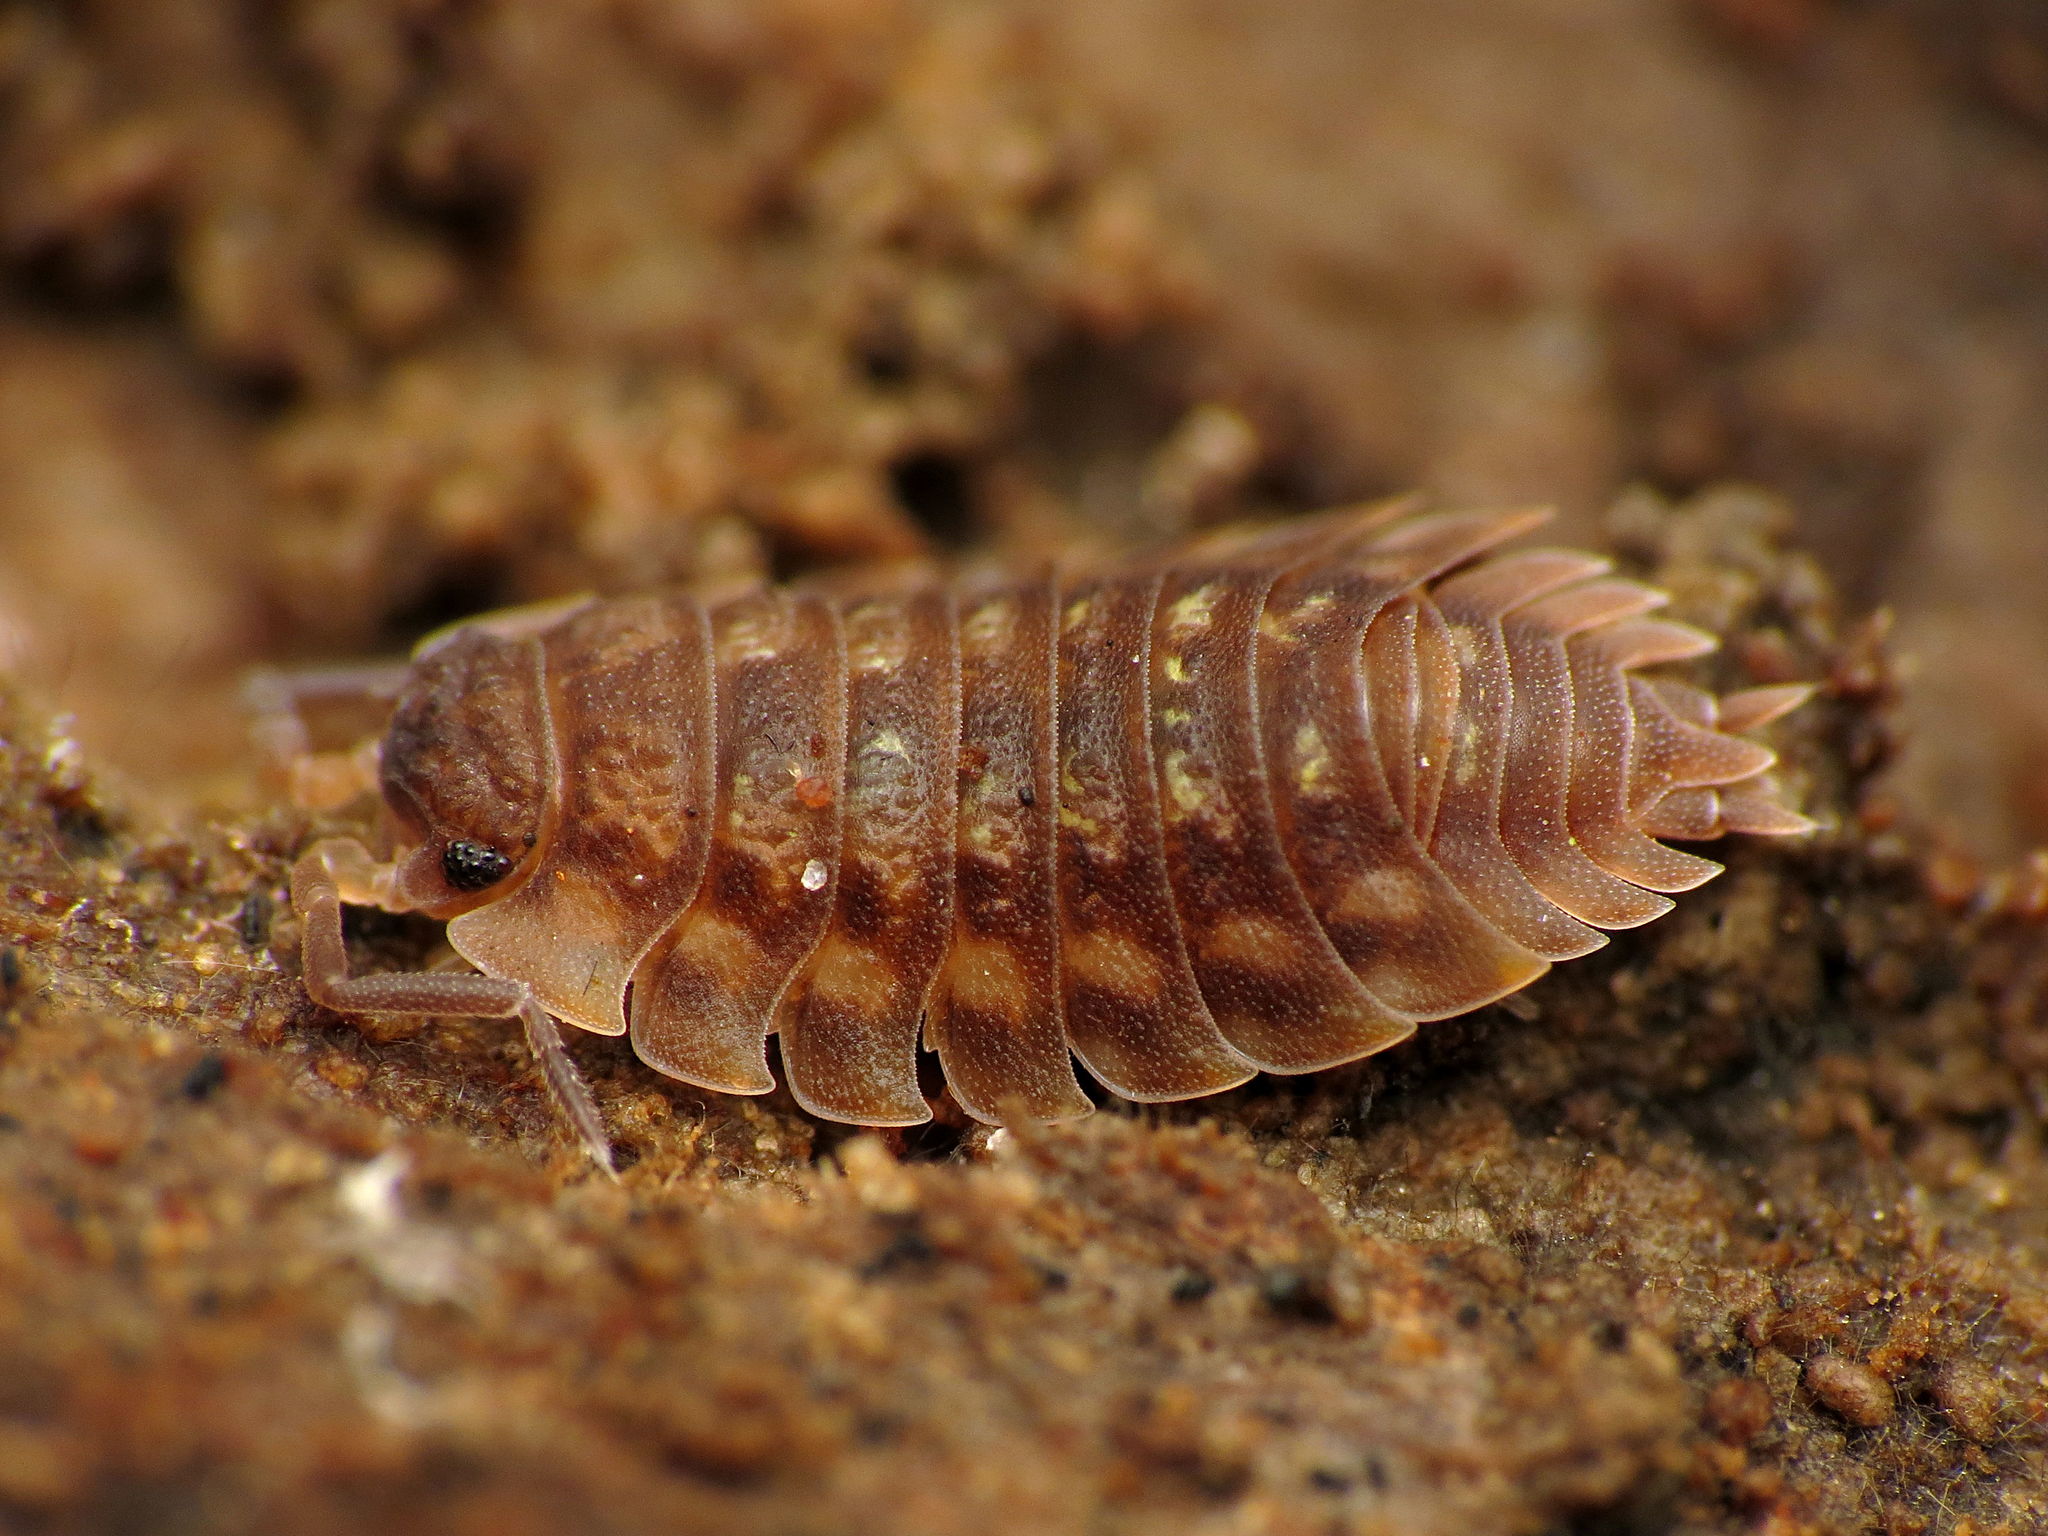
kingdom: Animalia
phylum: Arthropoda
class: Malacostraca
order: Isopoda
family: Oniscidae
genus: Oniscus
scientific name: Oniscus asellus
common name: Common shiny woodlouse
